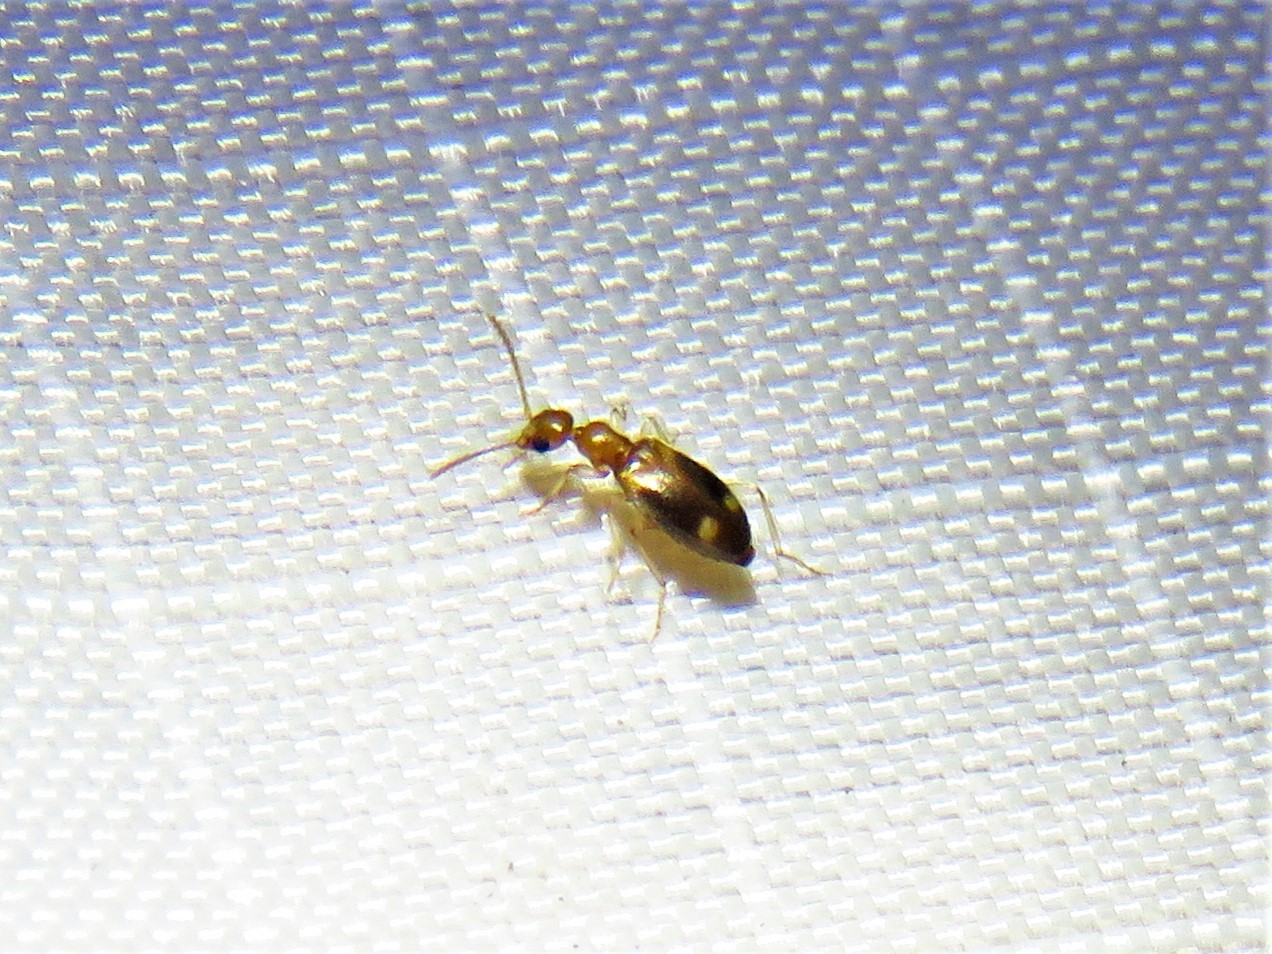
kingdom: Animalia
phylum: Arthropoda
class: Insecta
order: Coleoptera
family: Anthicidae
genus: Stricticollis
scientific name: Stricticollis tobias
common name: Two-dotted ant-like flower beetle
